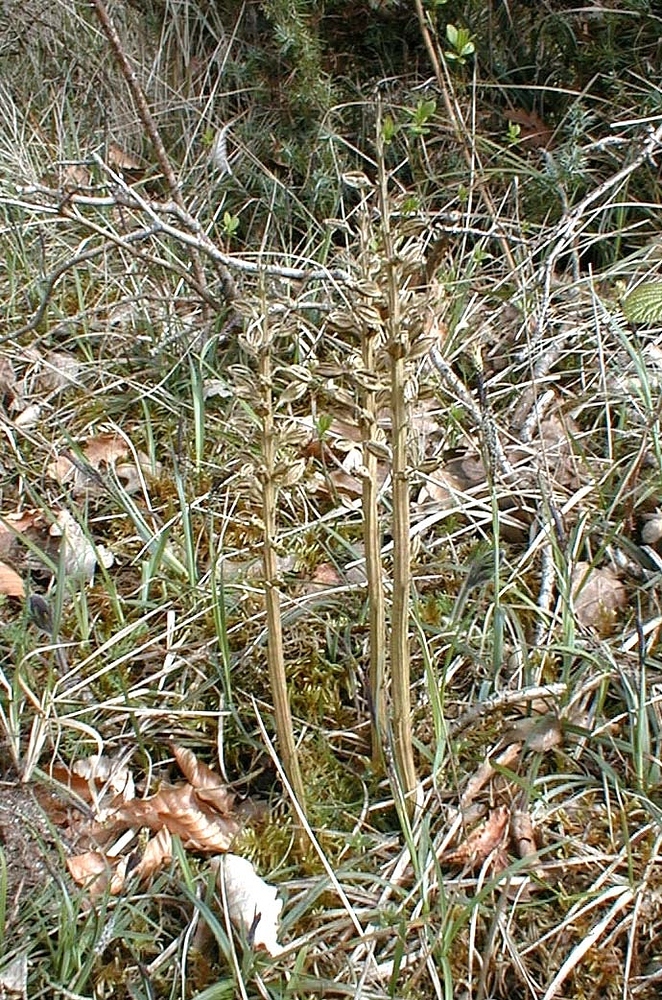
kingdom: Plantae
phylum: Tracheophyta
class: Liliopsida
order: Asparagales
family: Orchidaceae
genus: Neottia
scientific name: Neottia nidus-avis
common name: Bird's-nest orchid
